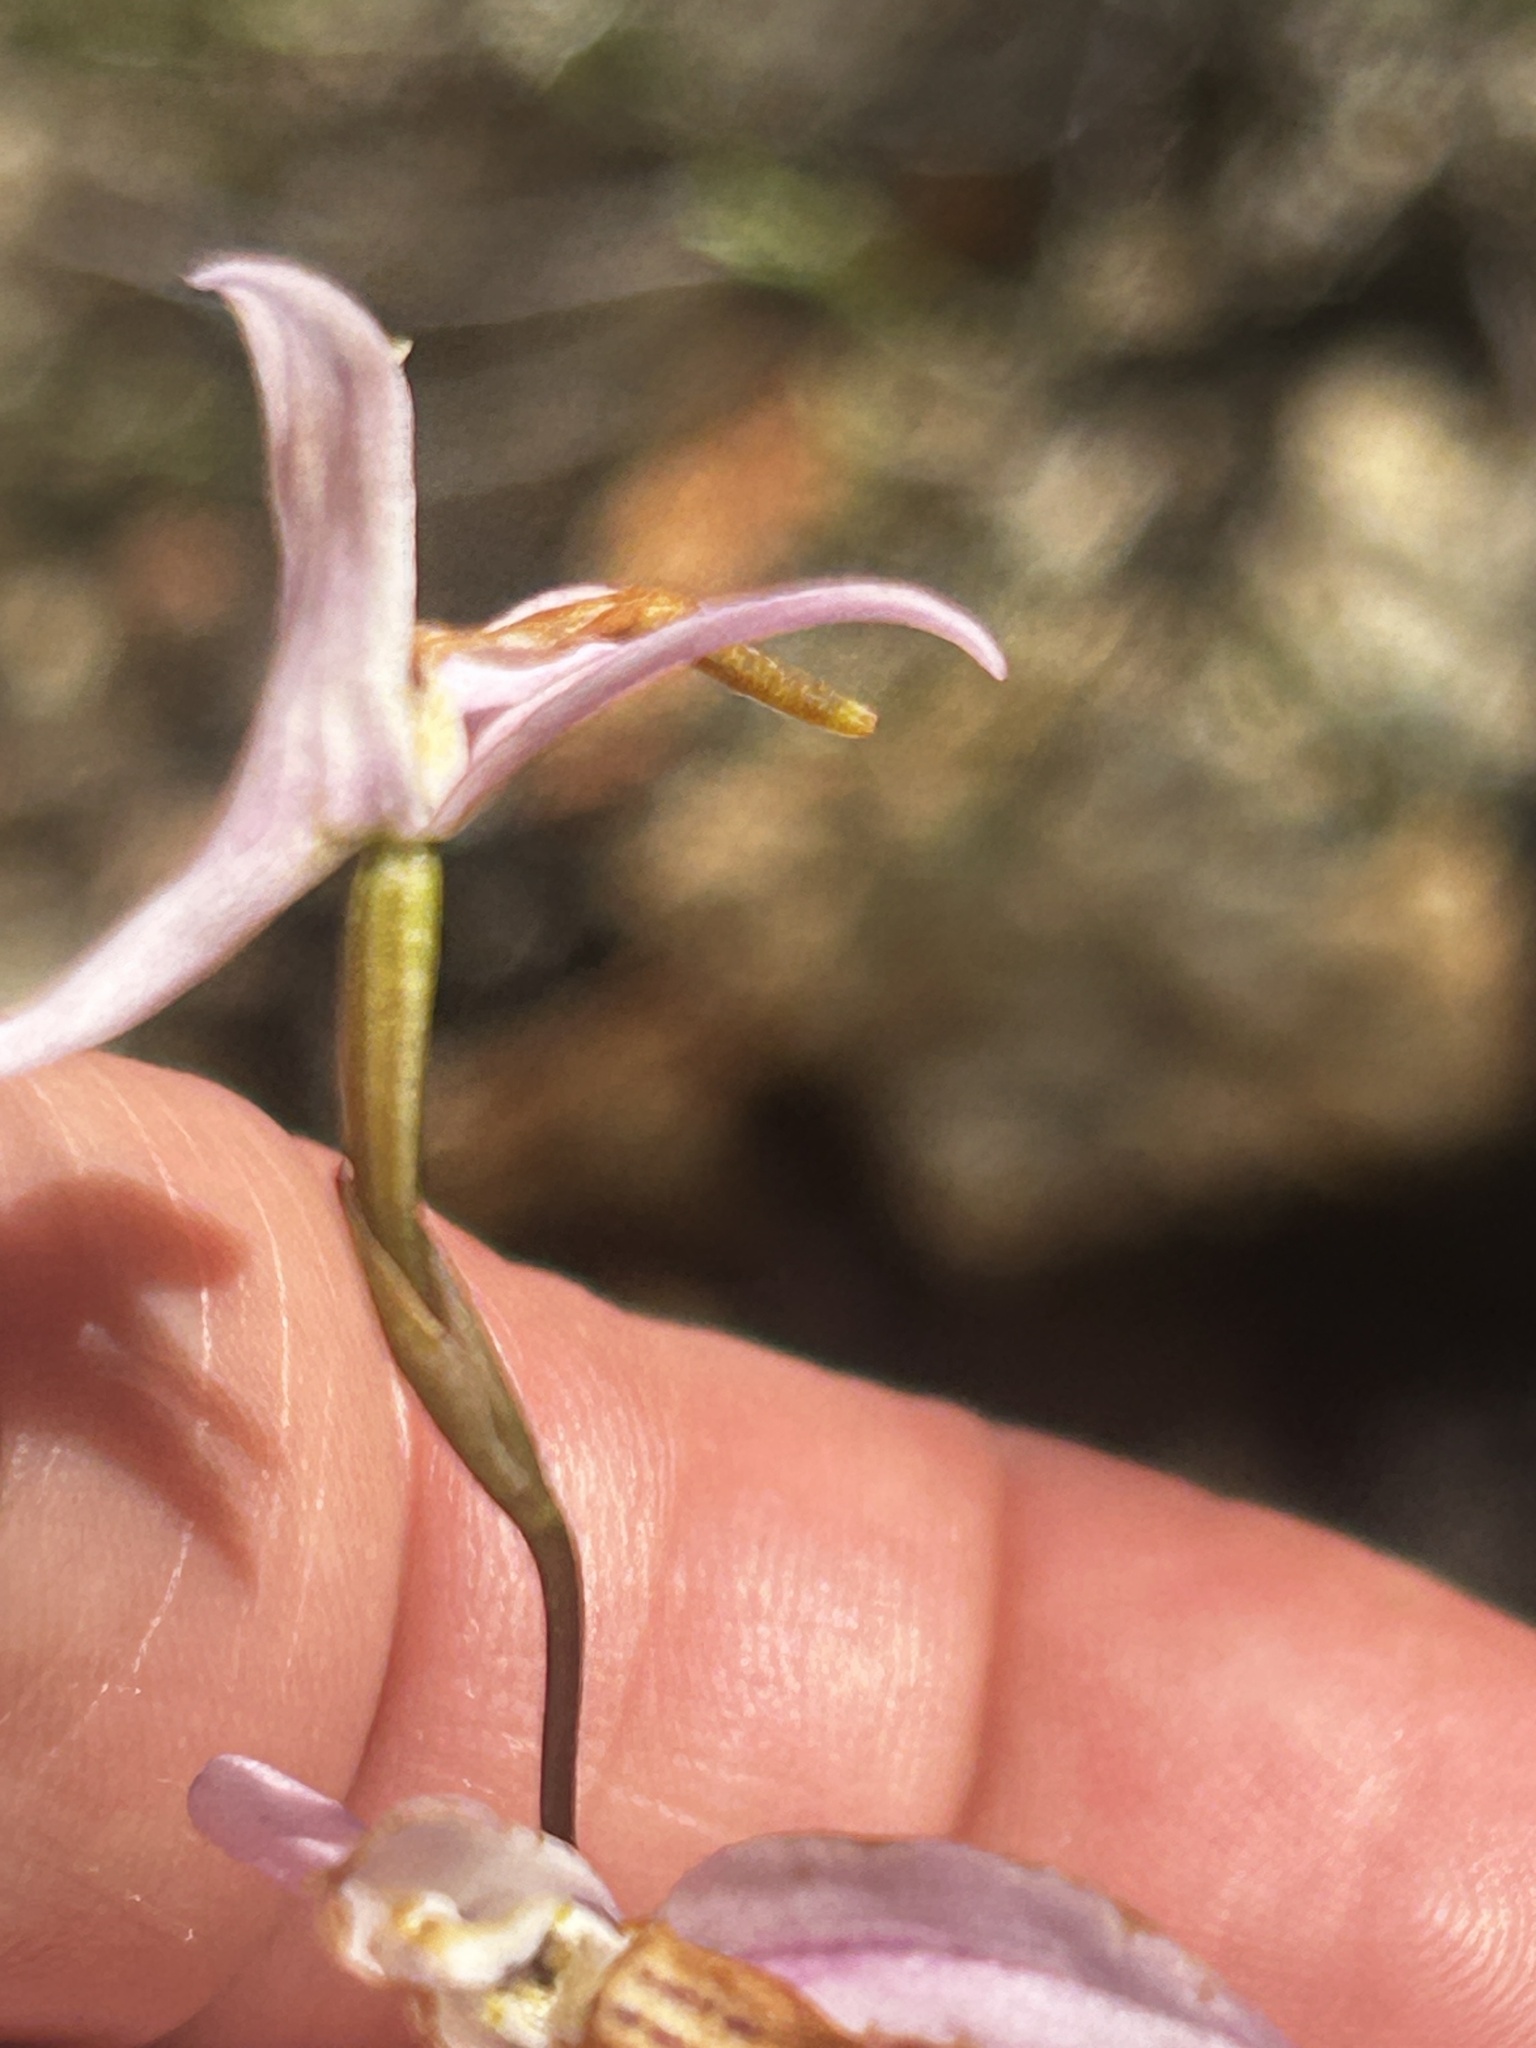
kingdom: Plantae
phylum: Tracheophyta
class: Liliopsida
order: Asparagales
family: Orchidaceae
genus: Disa
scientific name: Disa bifida
